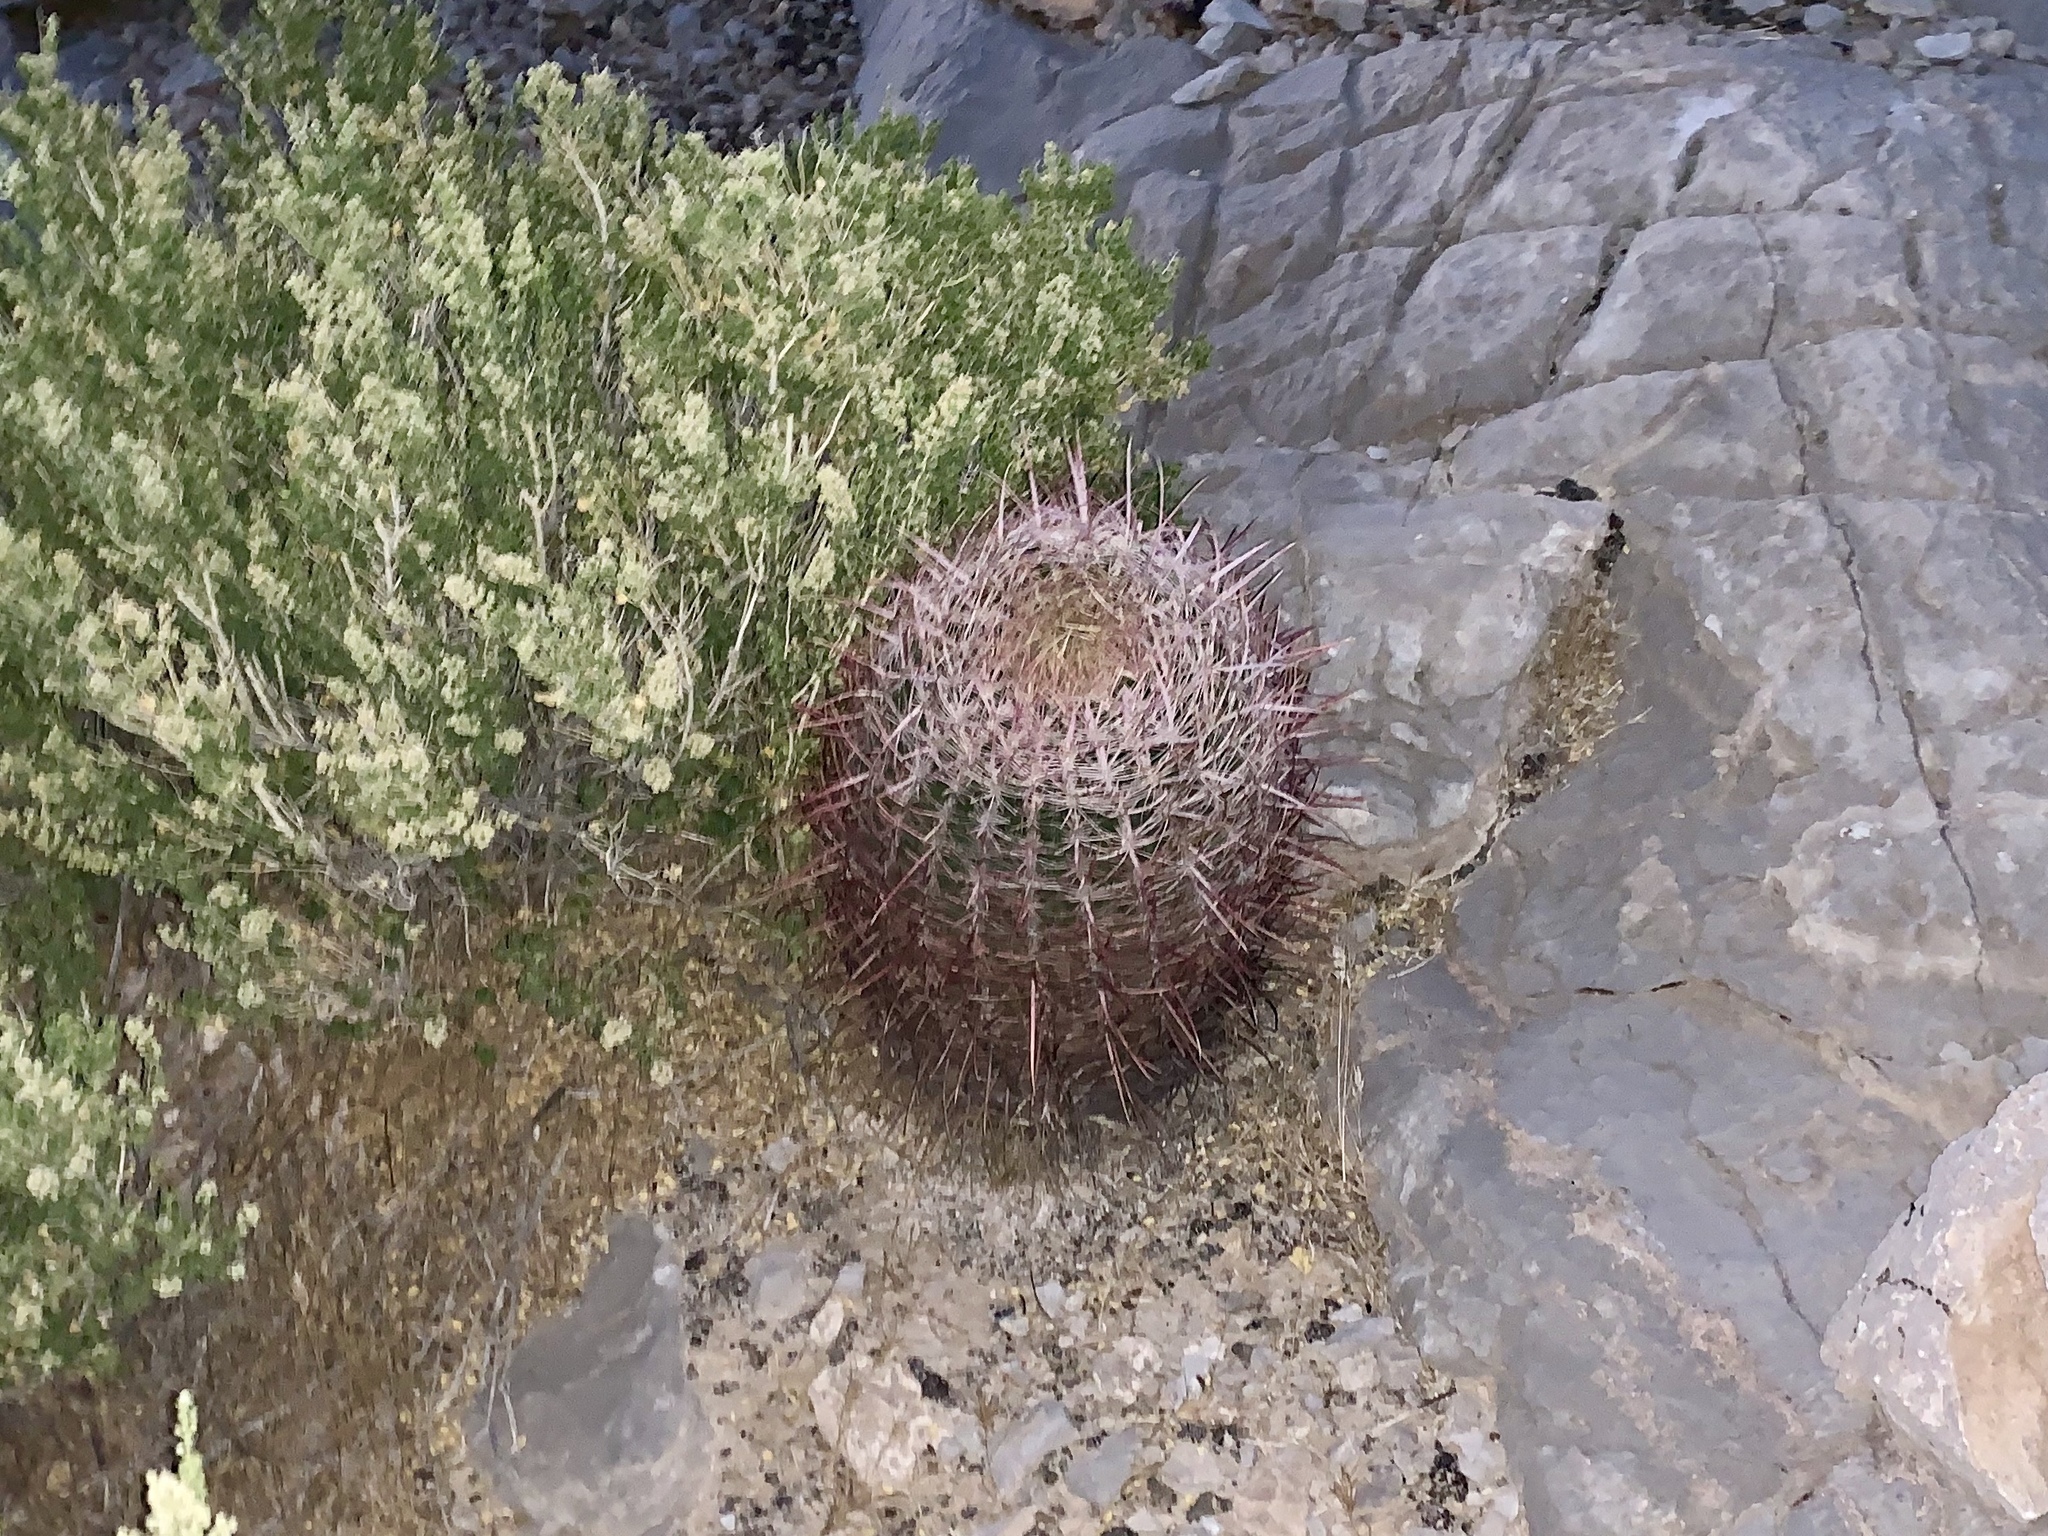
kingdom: Plantae
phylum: Tracheophyta
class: Magnoliopsida
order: Caryophyllales
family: Cactaceae
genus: Ferocactus
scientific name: Ferocactus cylindraceus
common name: California barrel cactus
